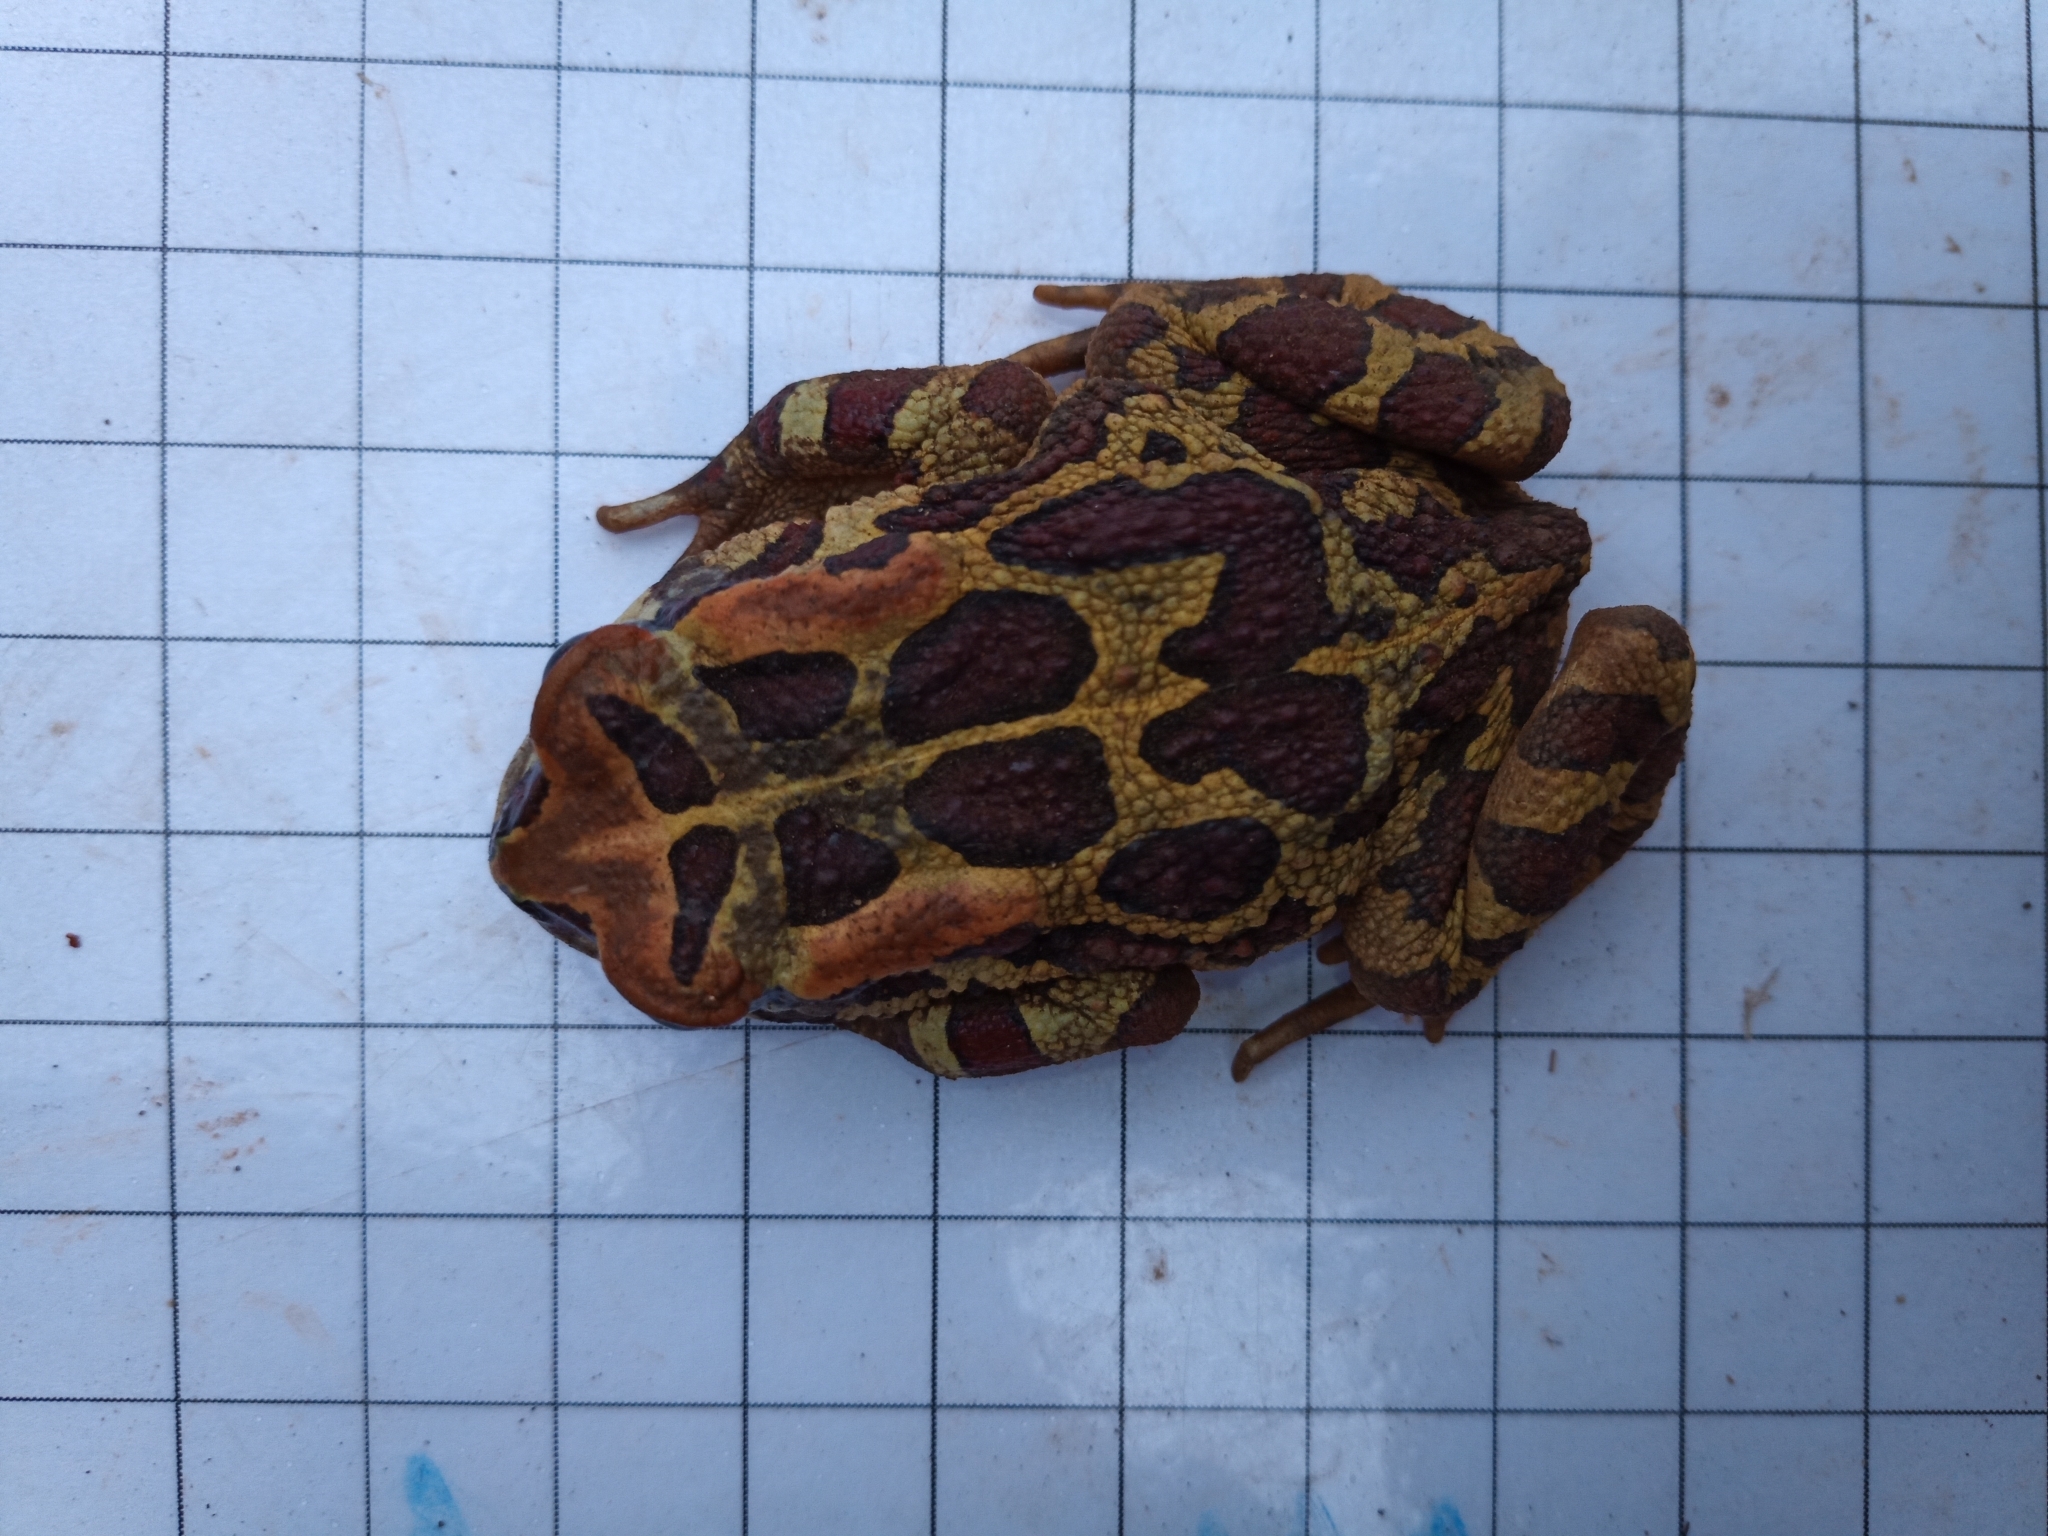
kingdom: Animalia
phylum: Chordata
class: Amphibia
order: Anura
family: Bufonidae
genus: Sclerophrys
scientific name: Sclerophrys pantherina
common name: Panther toad
